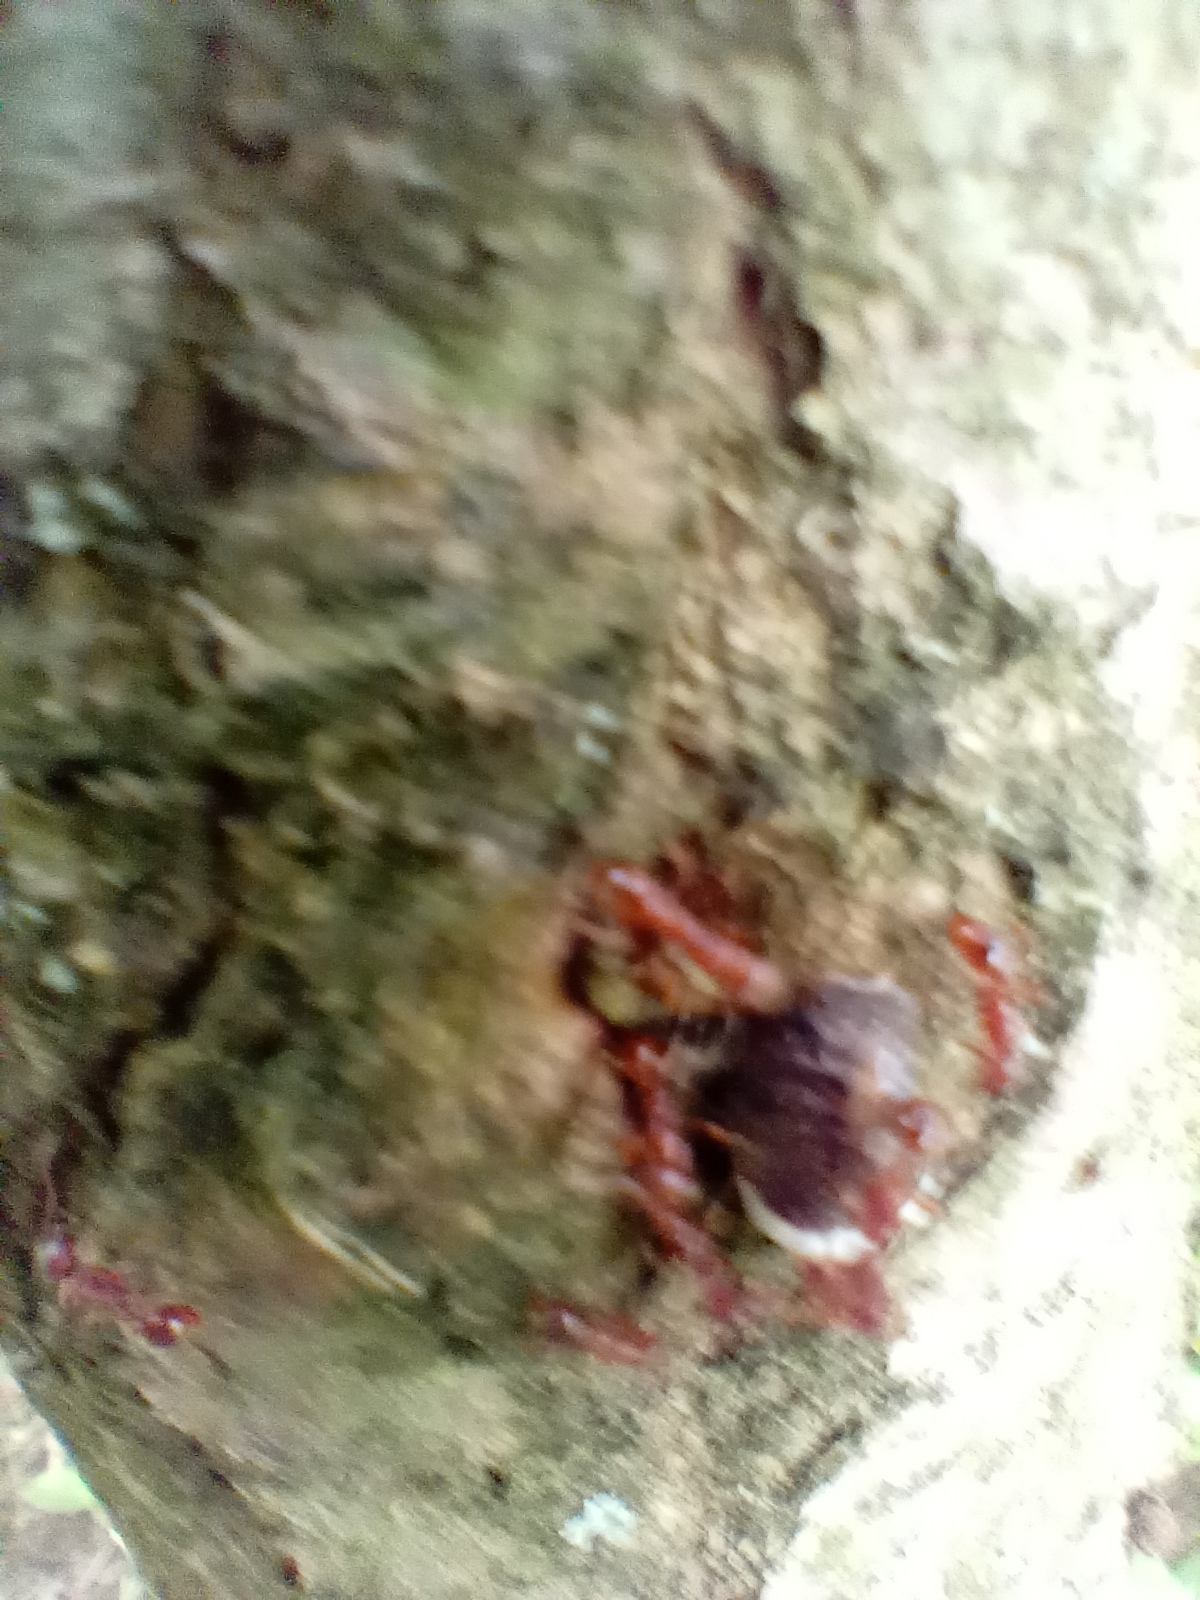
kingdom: Animalia
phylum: Arthropoda
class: Insecta
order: Hymenoptera
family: Formicidae
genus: Manica
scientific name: Manica rubida
